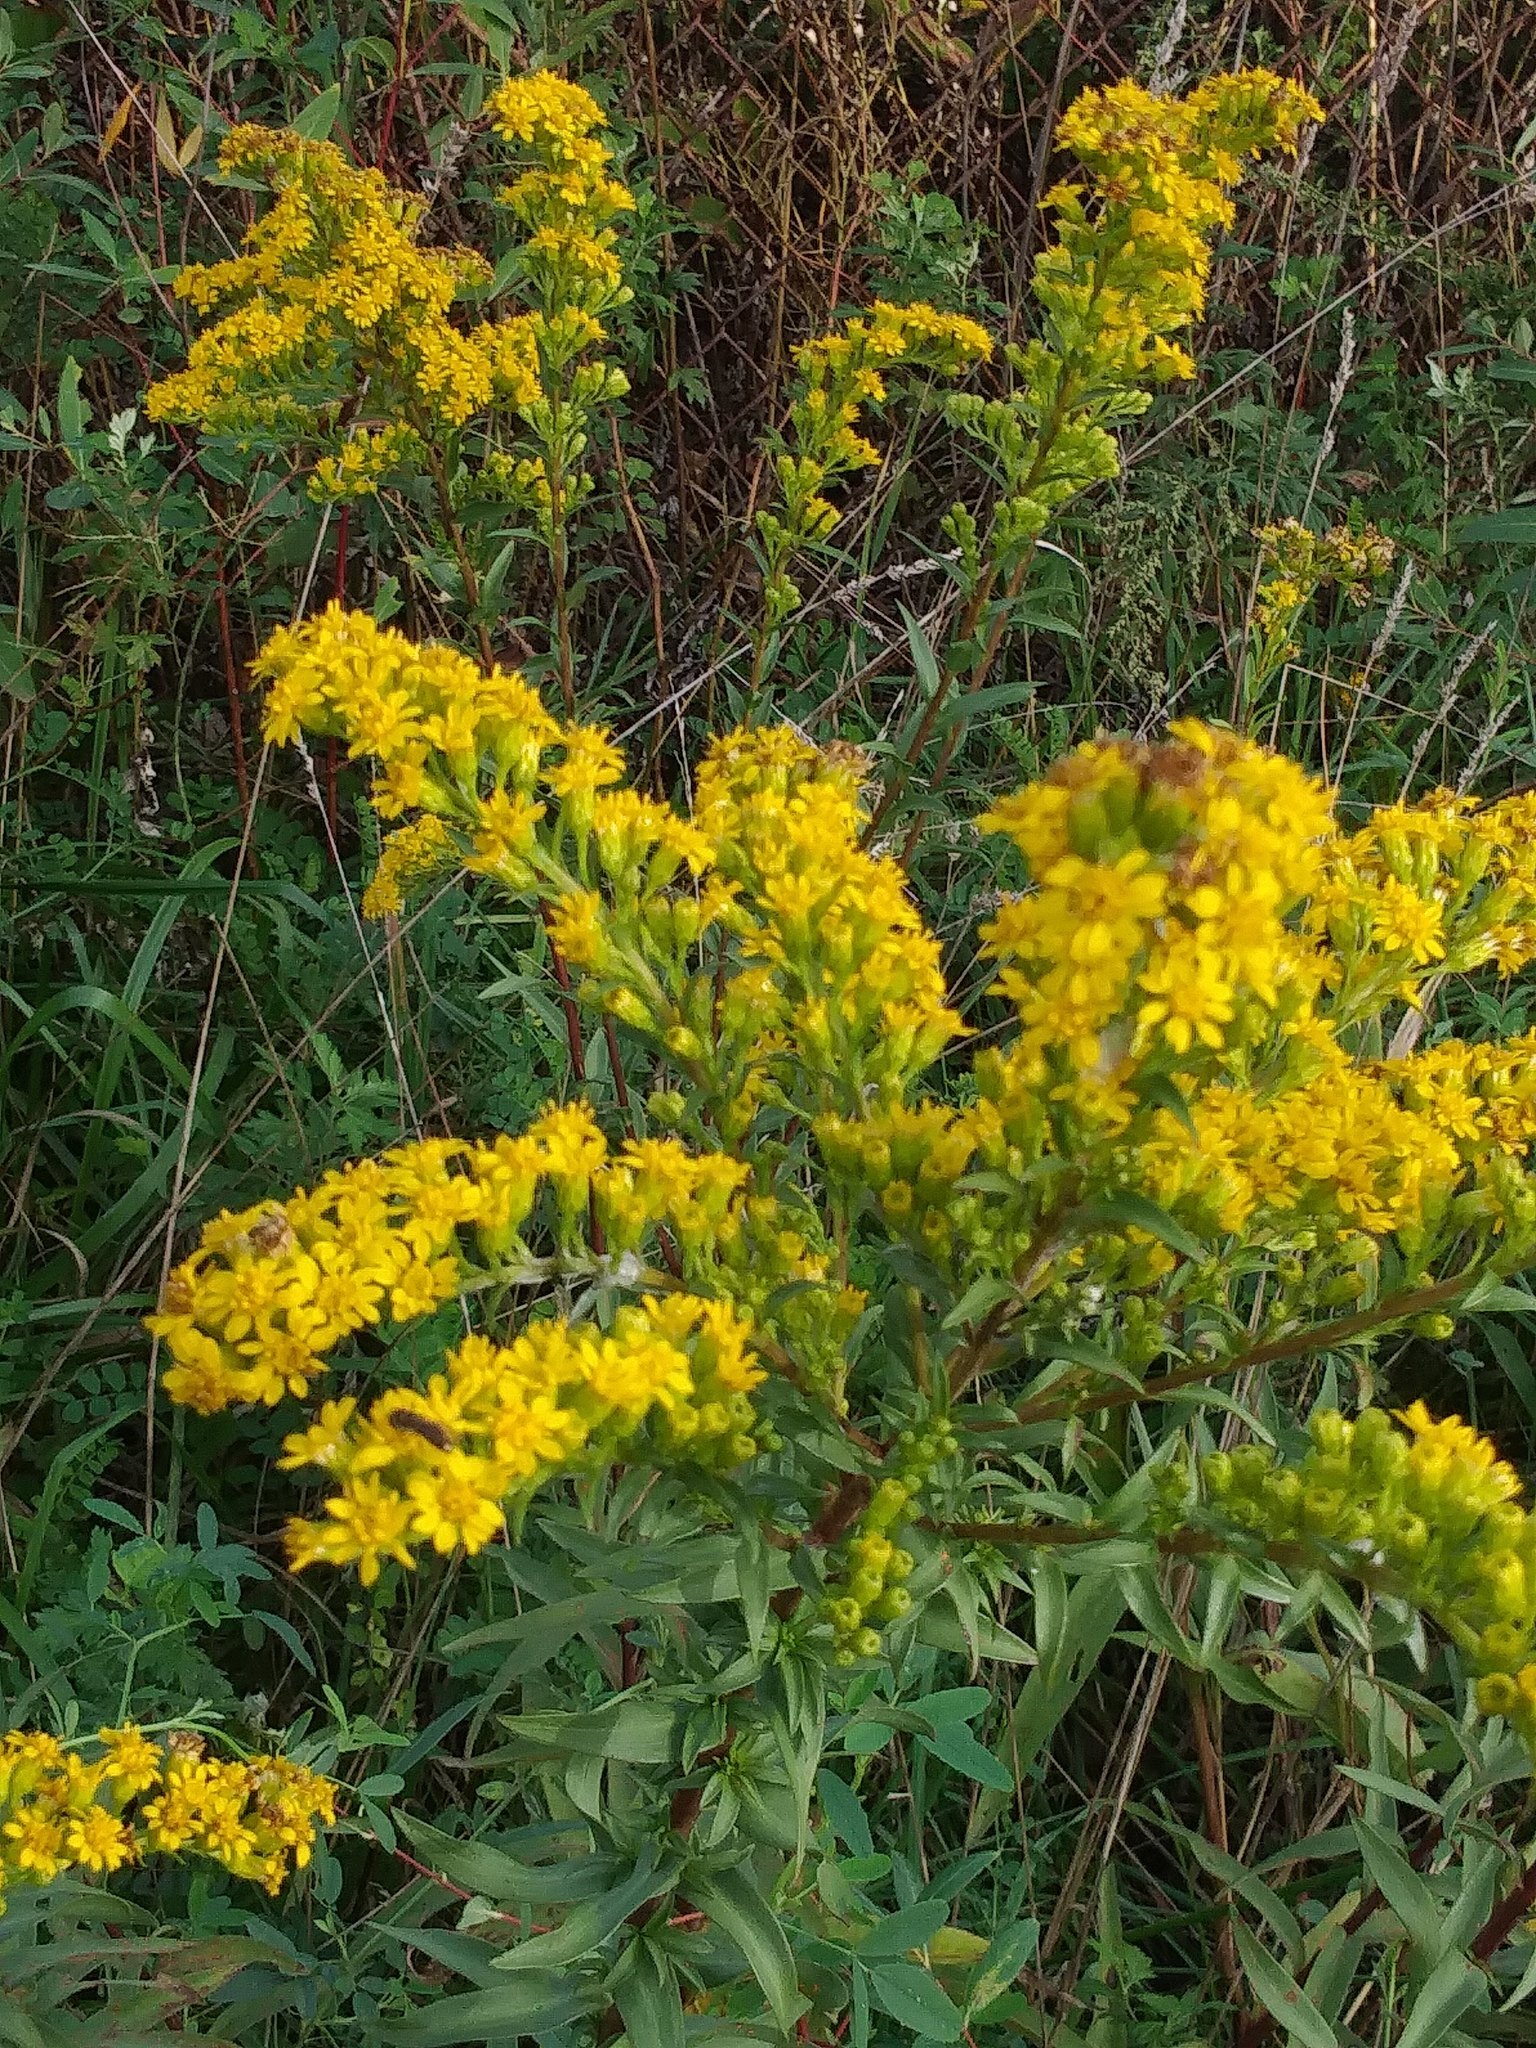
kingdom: Plantae
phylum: Tracheophyta
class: Magnoliopsida
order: Asterales
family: Asteraceae
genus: Solidago
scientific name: Solidago sempervirens
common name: Salt-marsh goldenrod
